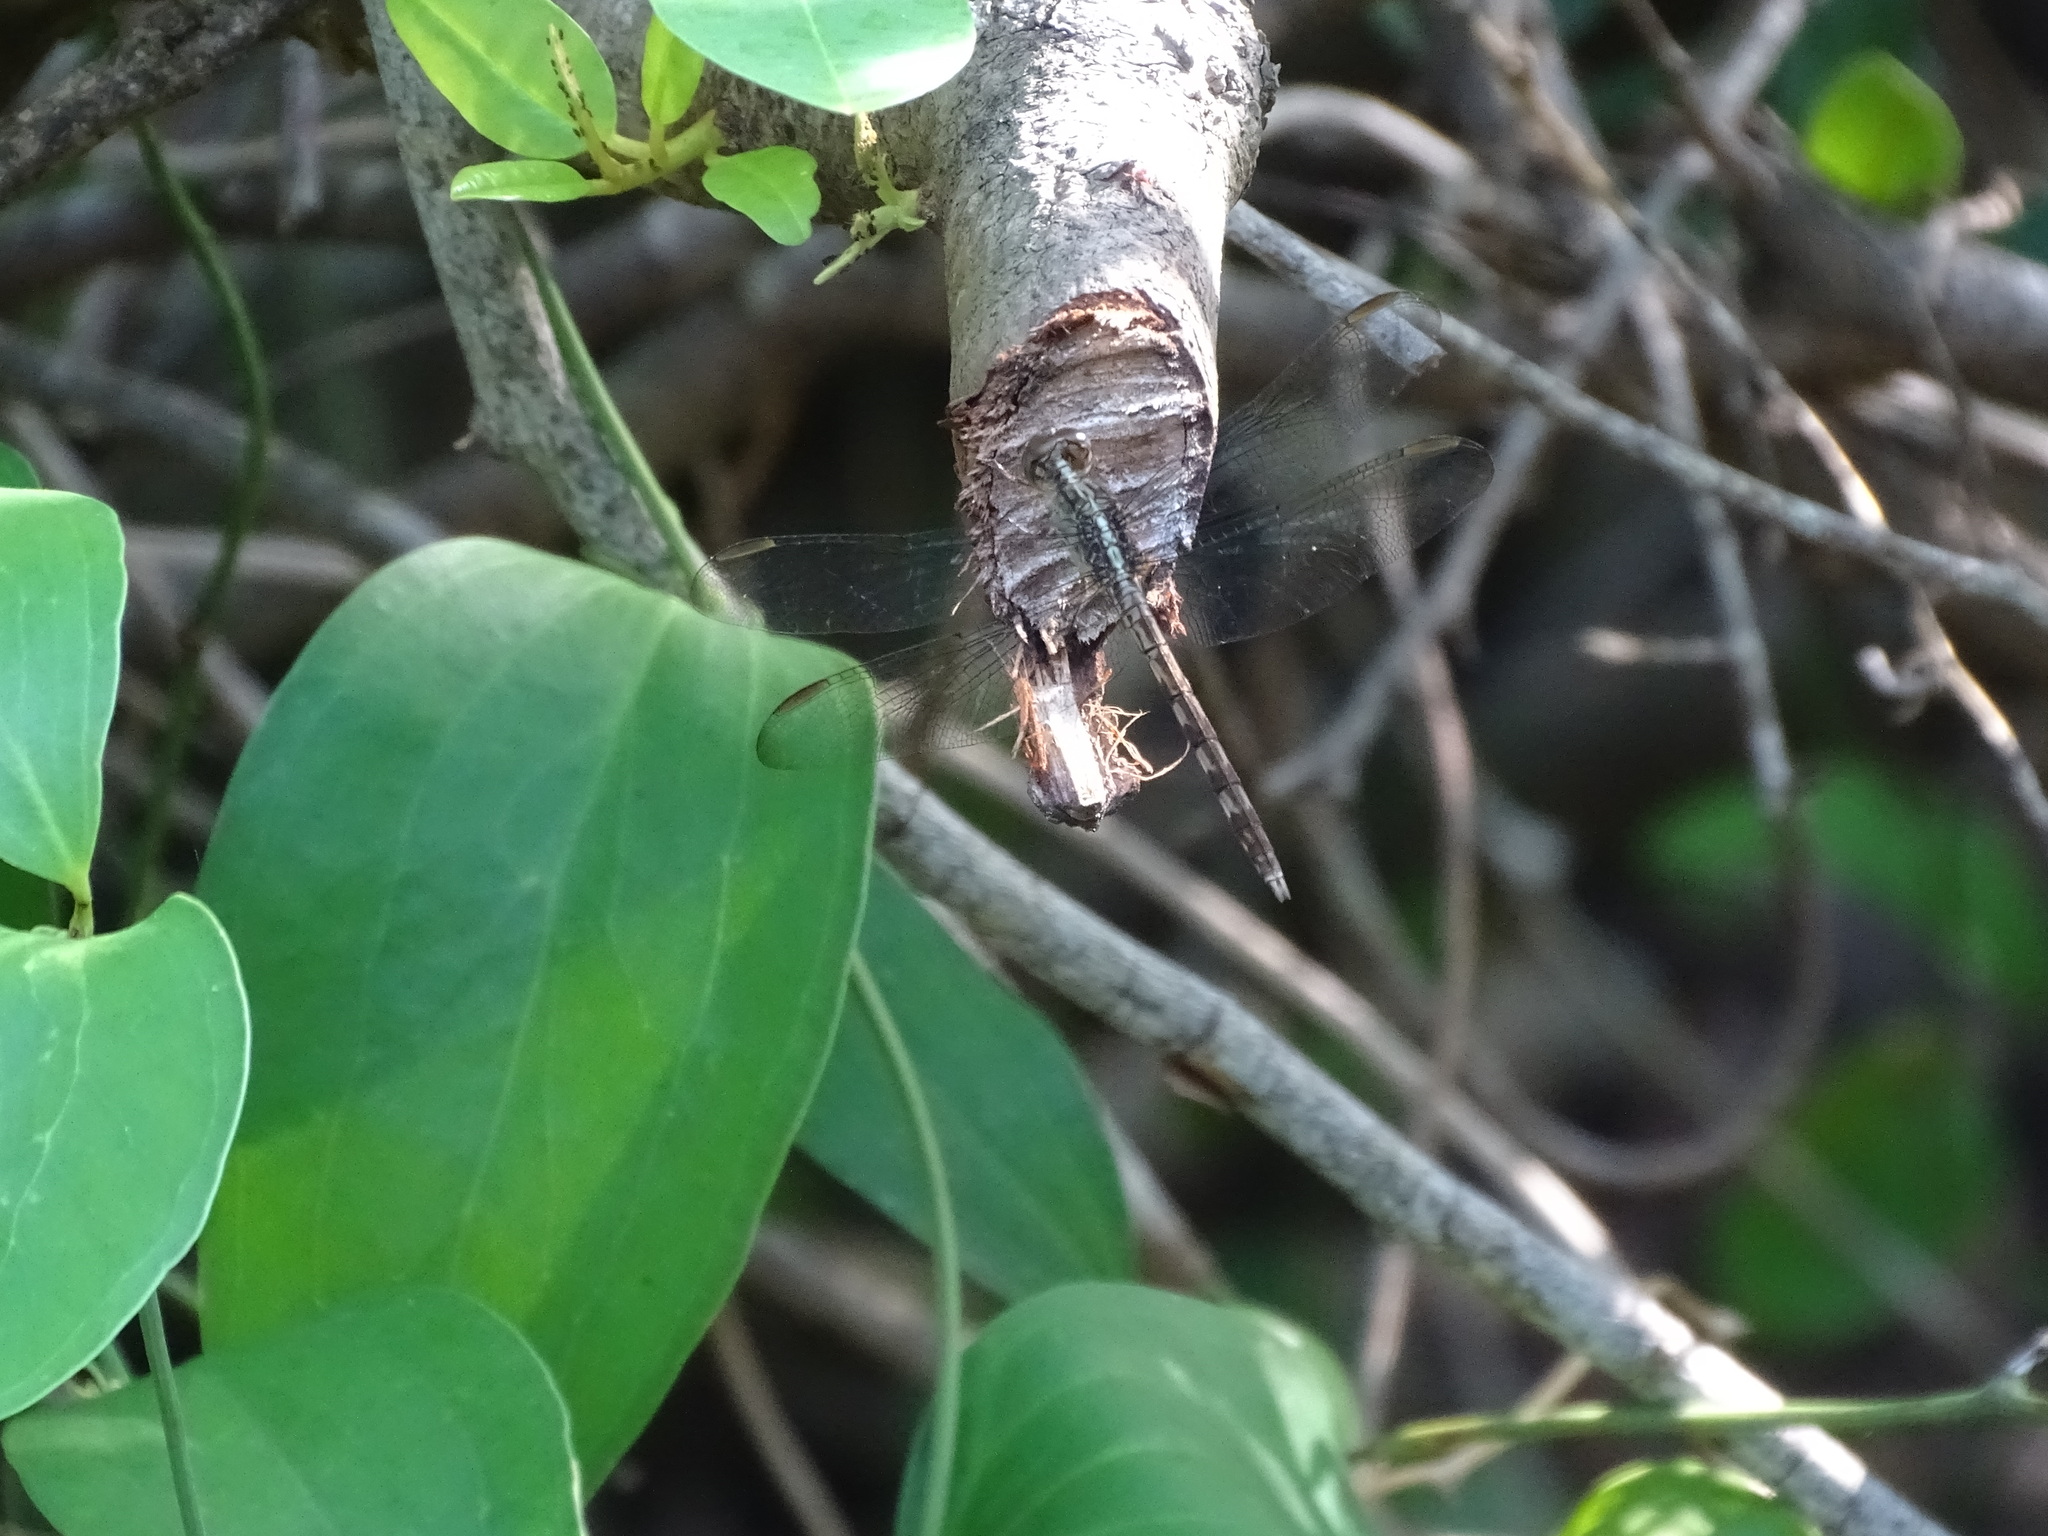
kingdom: Animalia
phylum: Arthropoda
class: Insecta
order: Odonata
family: Libellulidae
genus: Erythrodiplax
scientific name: Erythrodiplax umbrata
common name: Band-winged dragonlet
